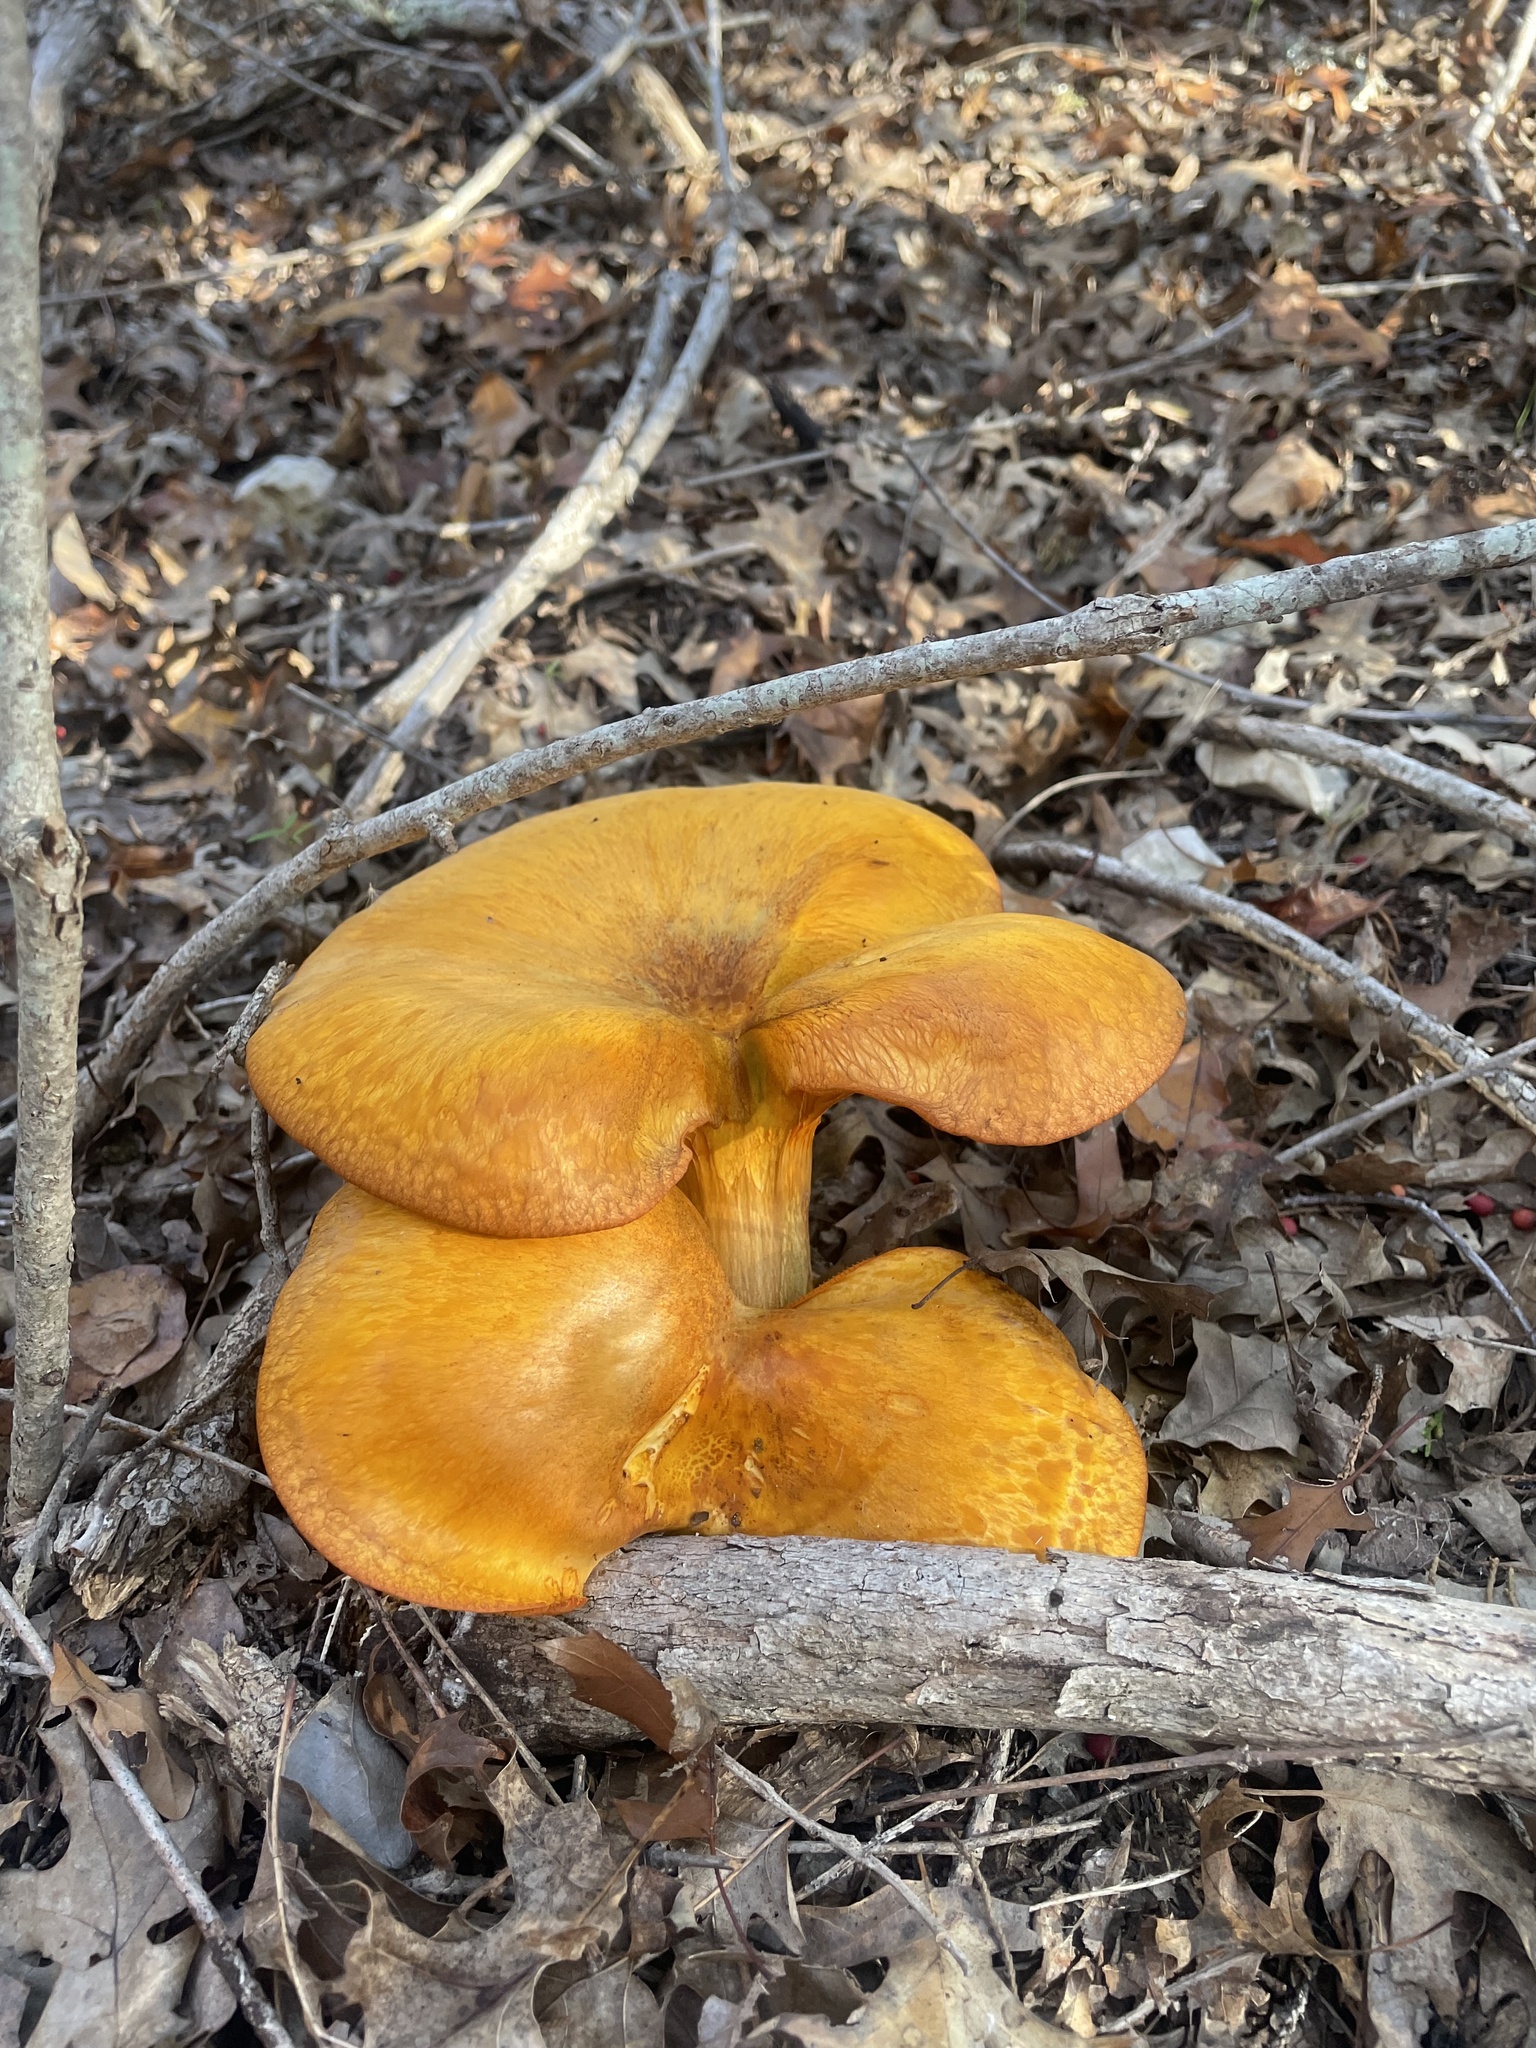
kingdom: Fungi
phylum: Basidiomycota
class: Agaricomycetes
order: Agaricales
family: Omphalotaceae
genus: Omphalotus
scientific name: Omphalotus subilludens
